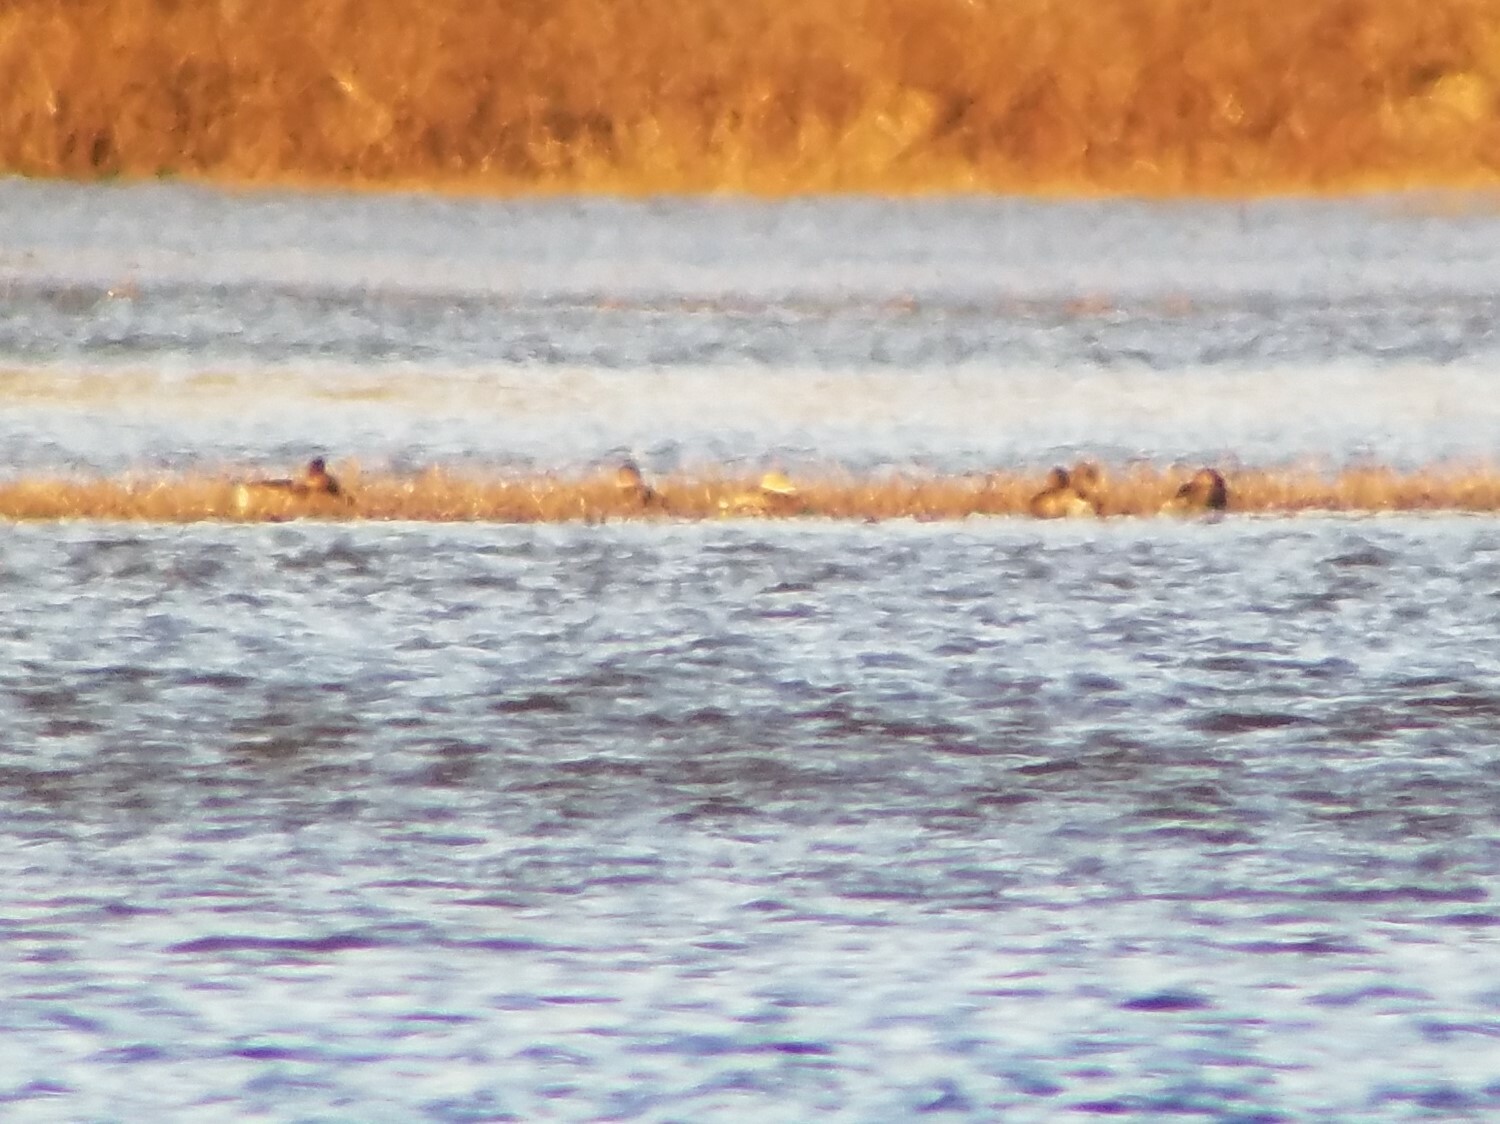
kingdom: Animalia
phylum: Chordata
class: Aves
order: Podicipediformes
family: Podicipedidae
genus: Podilymbus
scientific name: Podilymbus podiceps
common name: Pied-billed grebe
